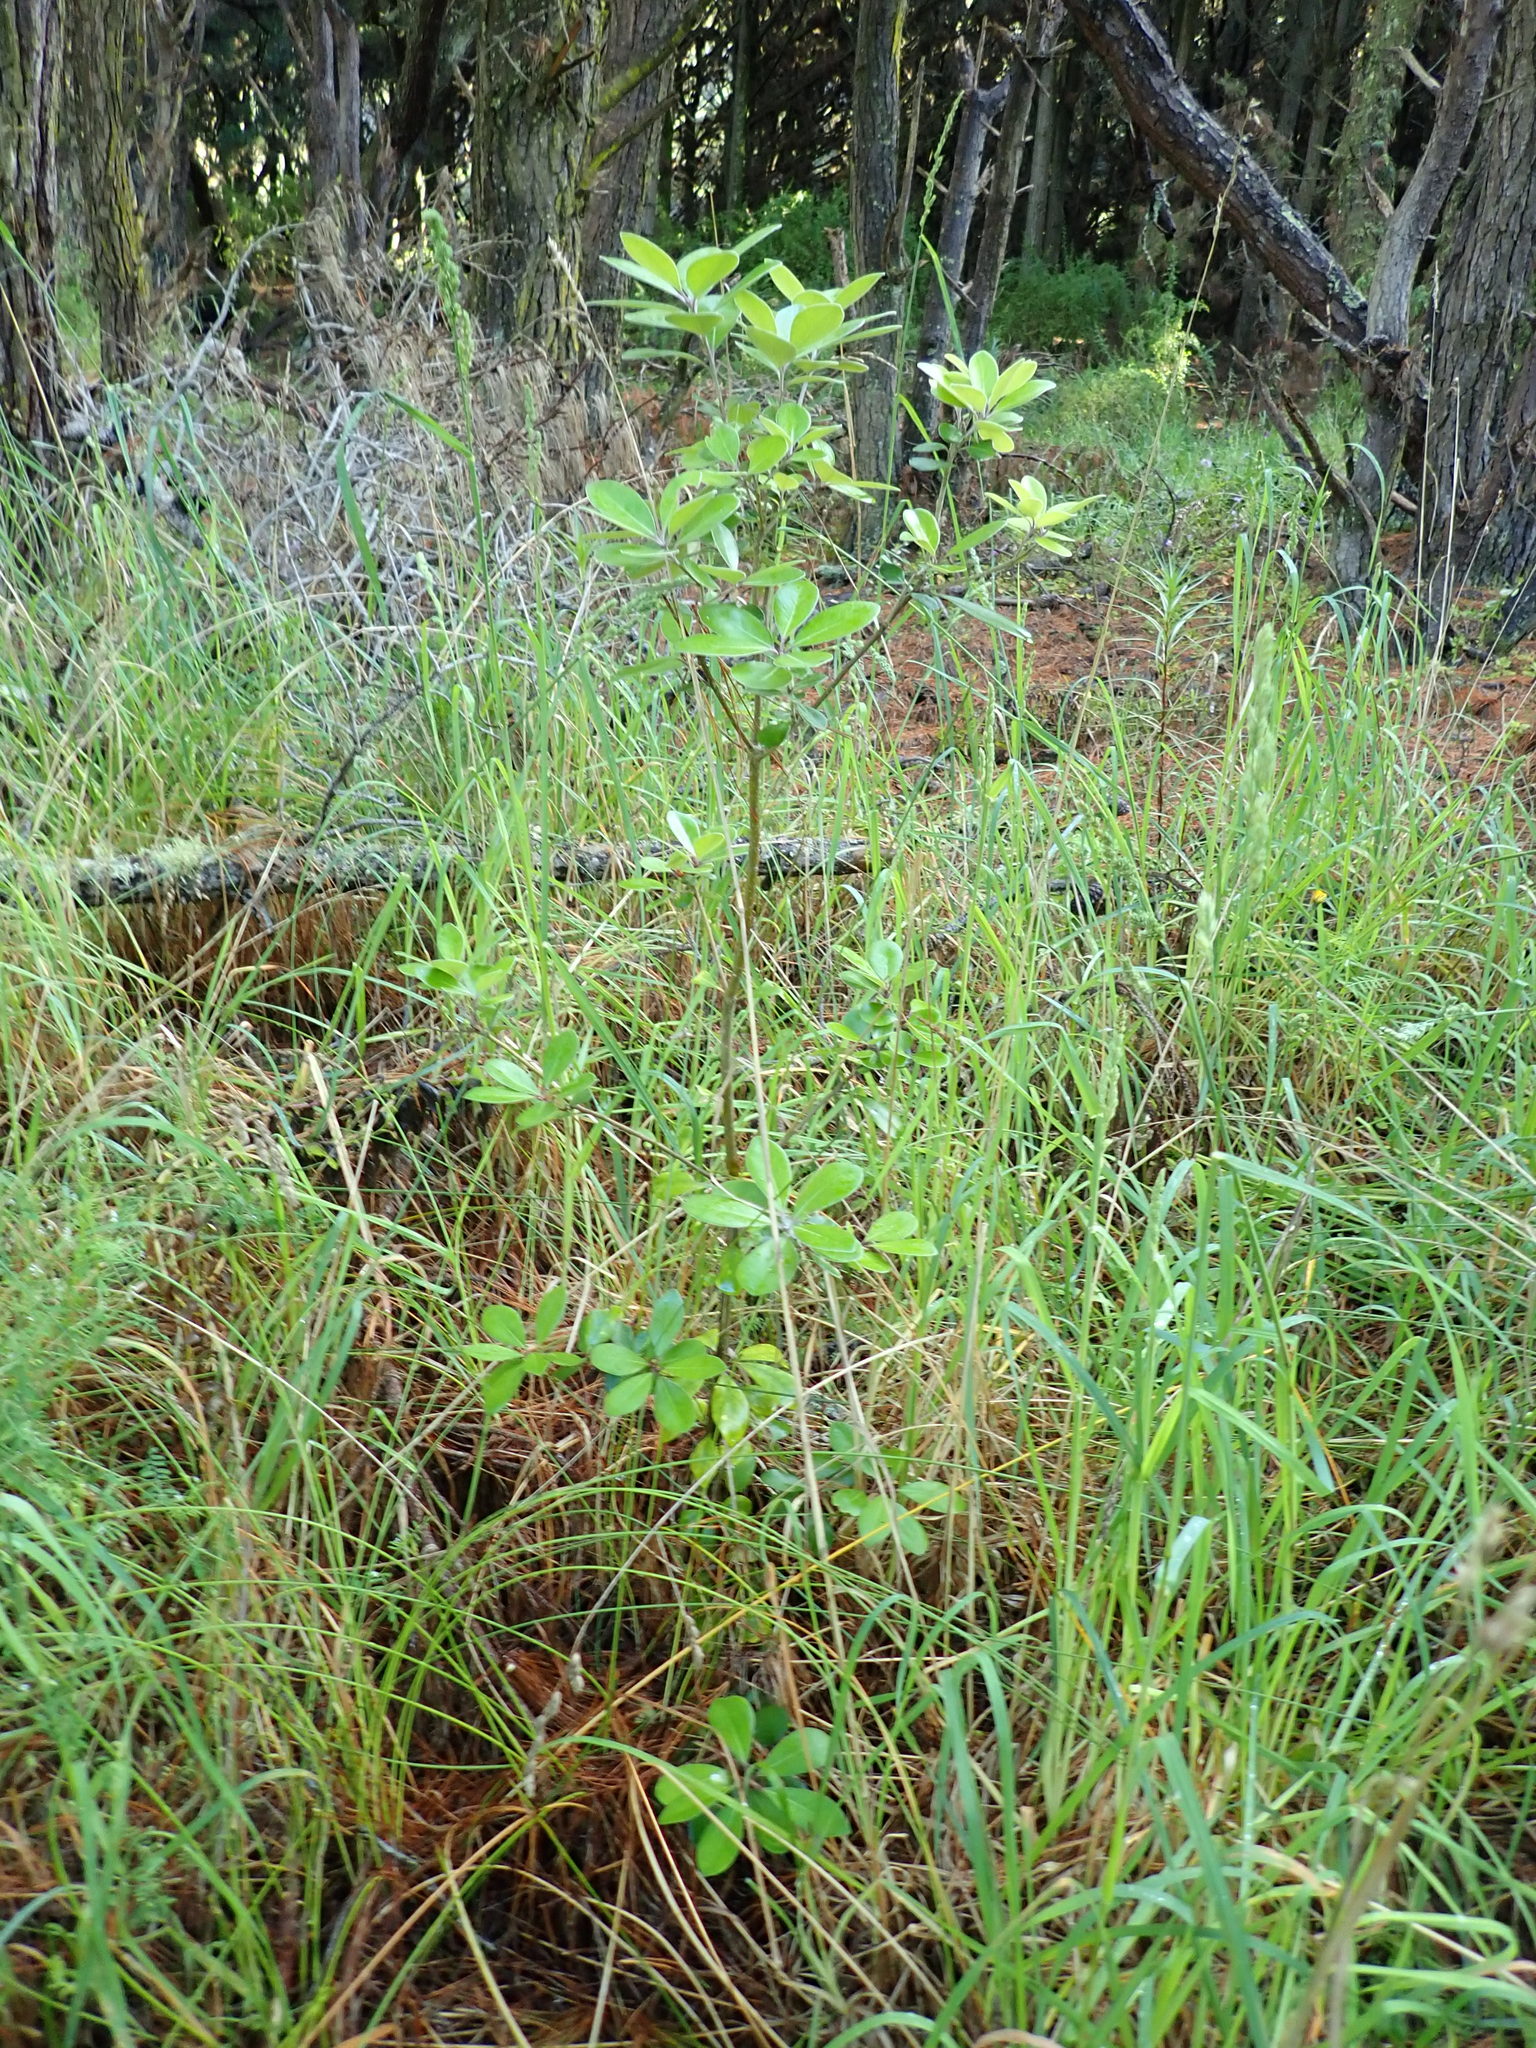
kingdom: Plantae
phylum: Tracheophyta
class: Magnoliopsida
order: Apiales
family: Pittosporaceae
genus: Pittosporum
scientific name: Pittosporum crassifolium
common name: Karo
